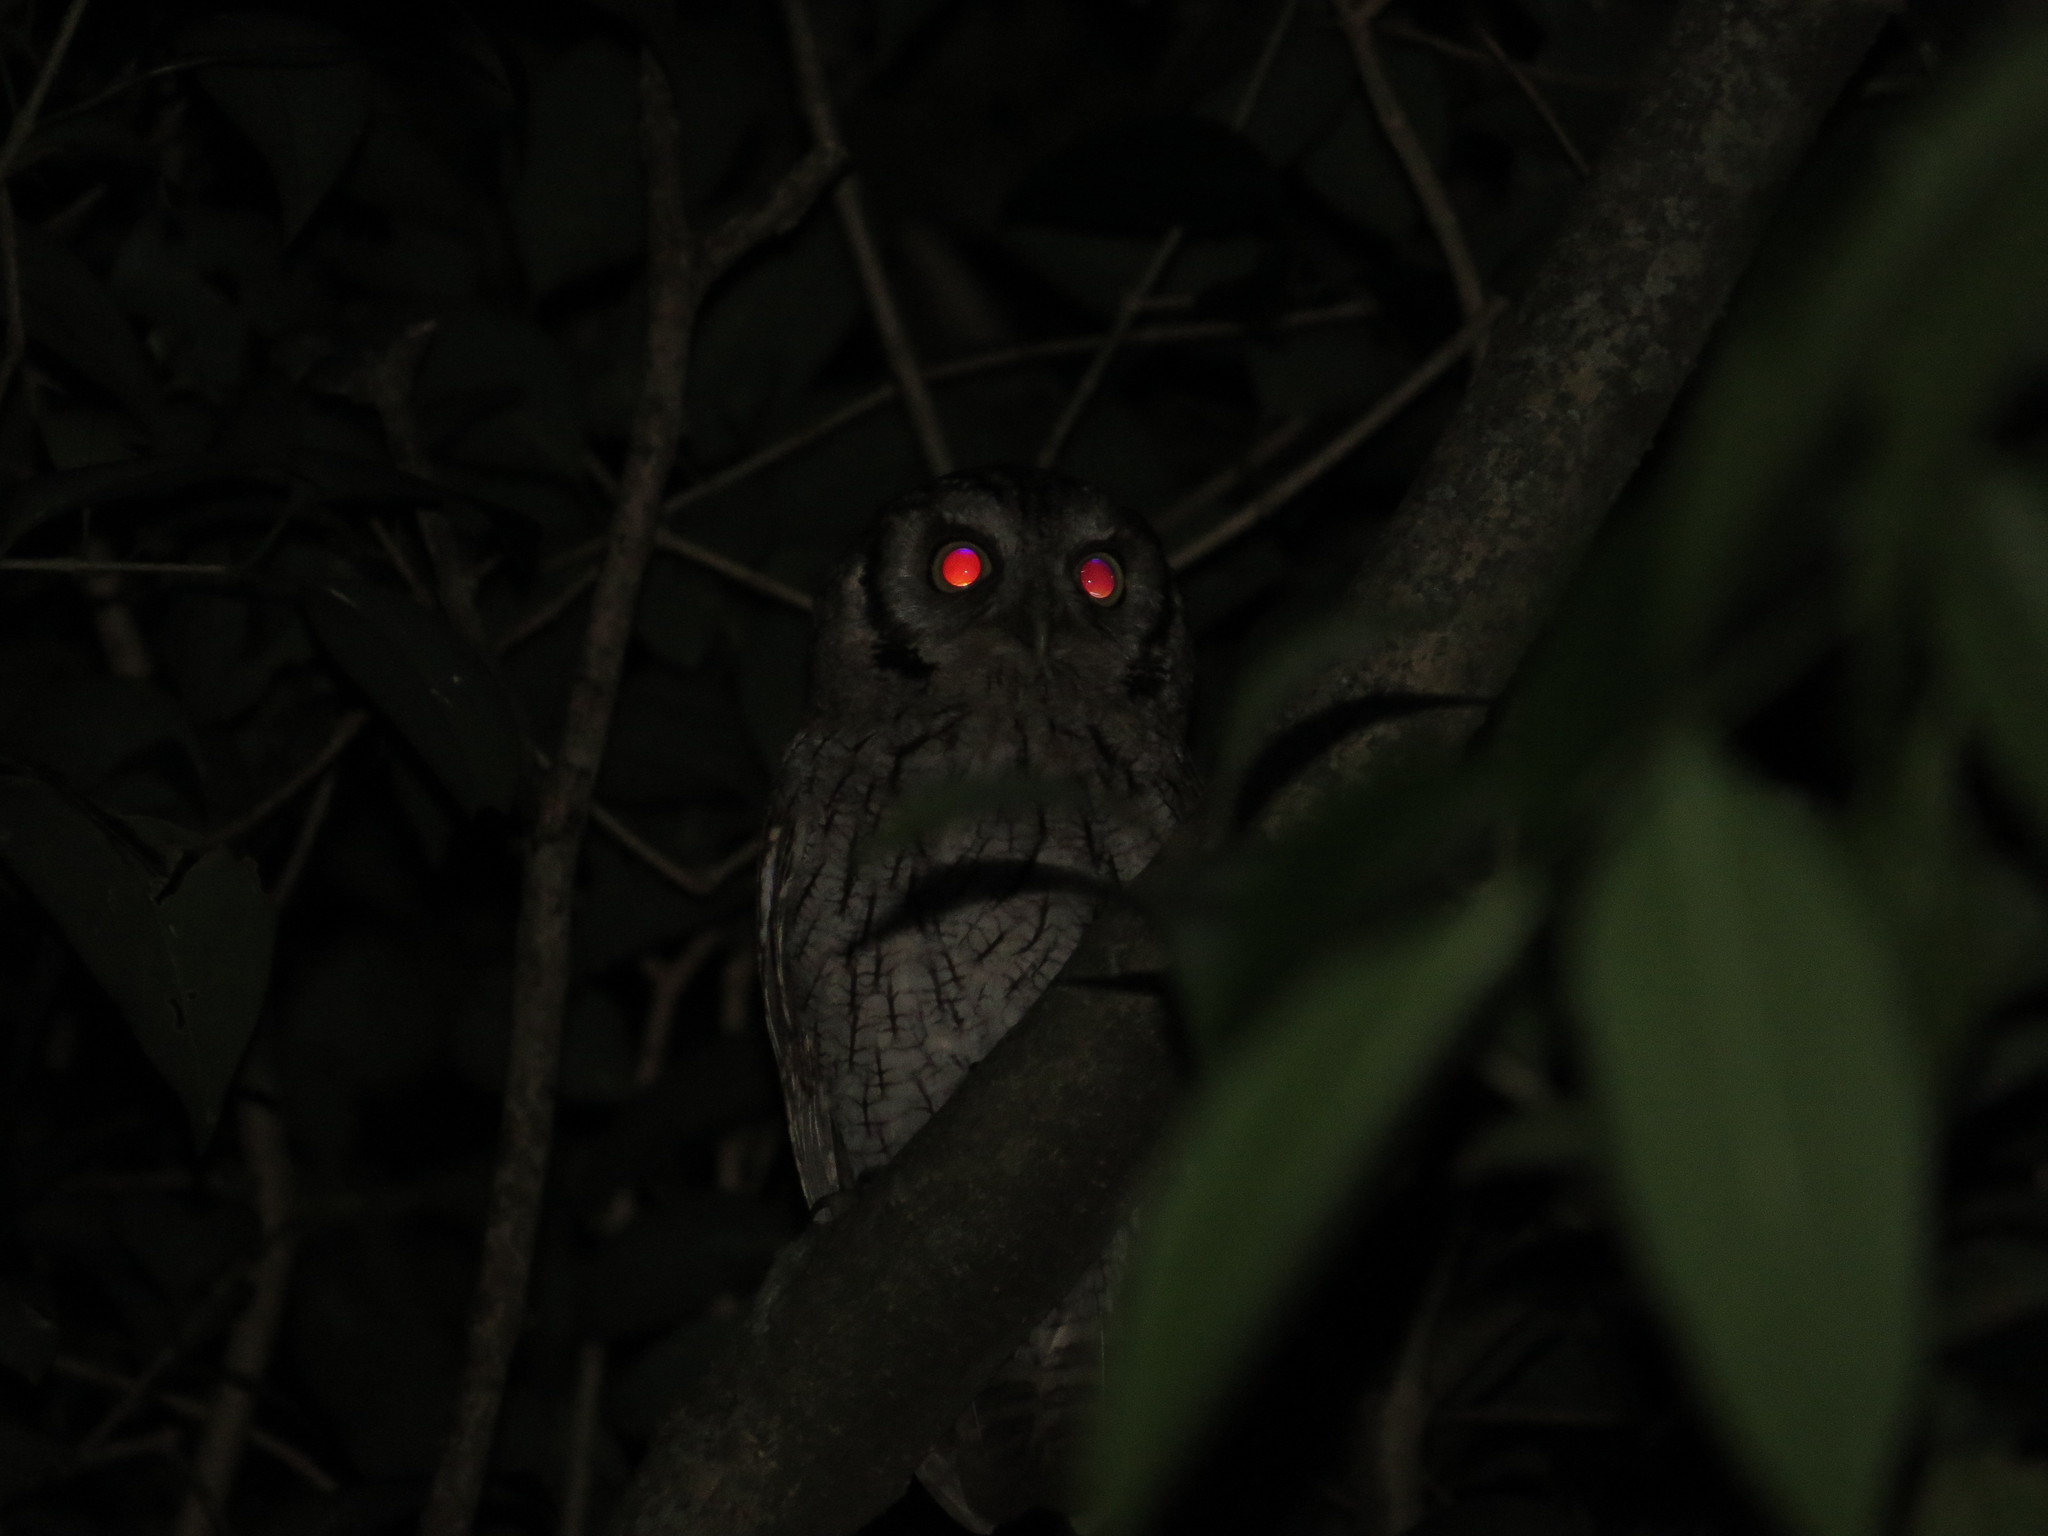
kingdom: Animalia
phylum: Chordata
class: Aves
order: Strigiformes
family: Strigidae
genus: Megascops
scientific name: Megascops choliba
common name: Tropical screech-owl
